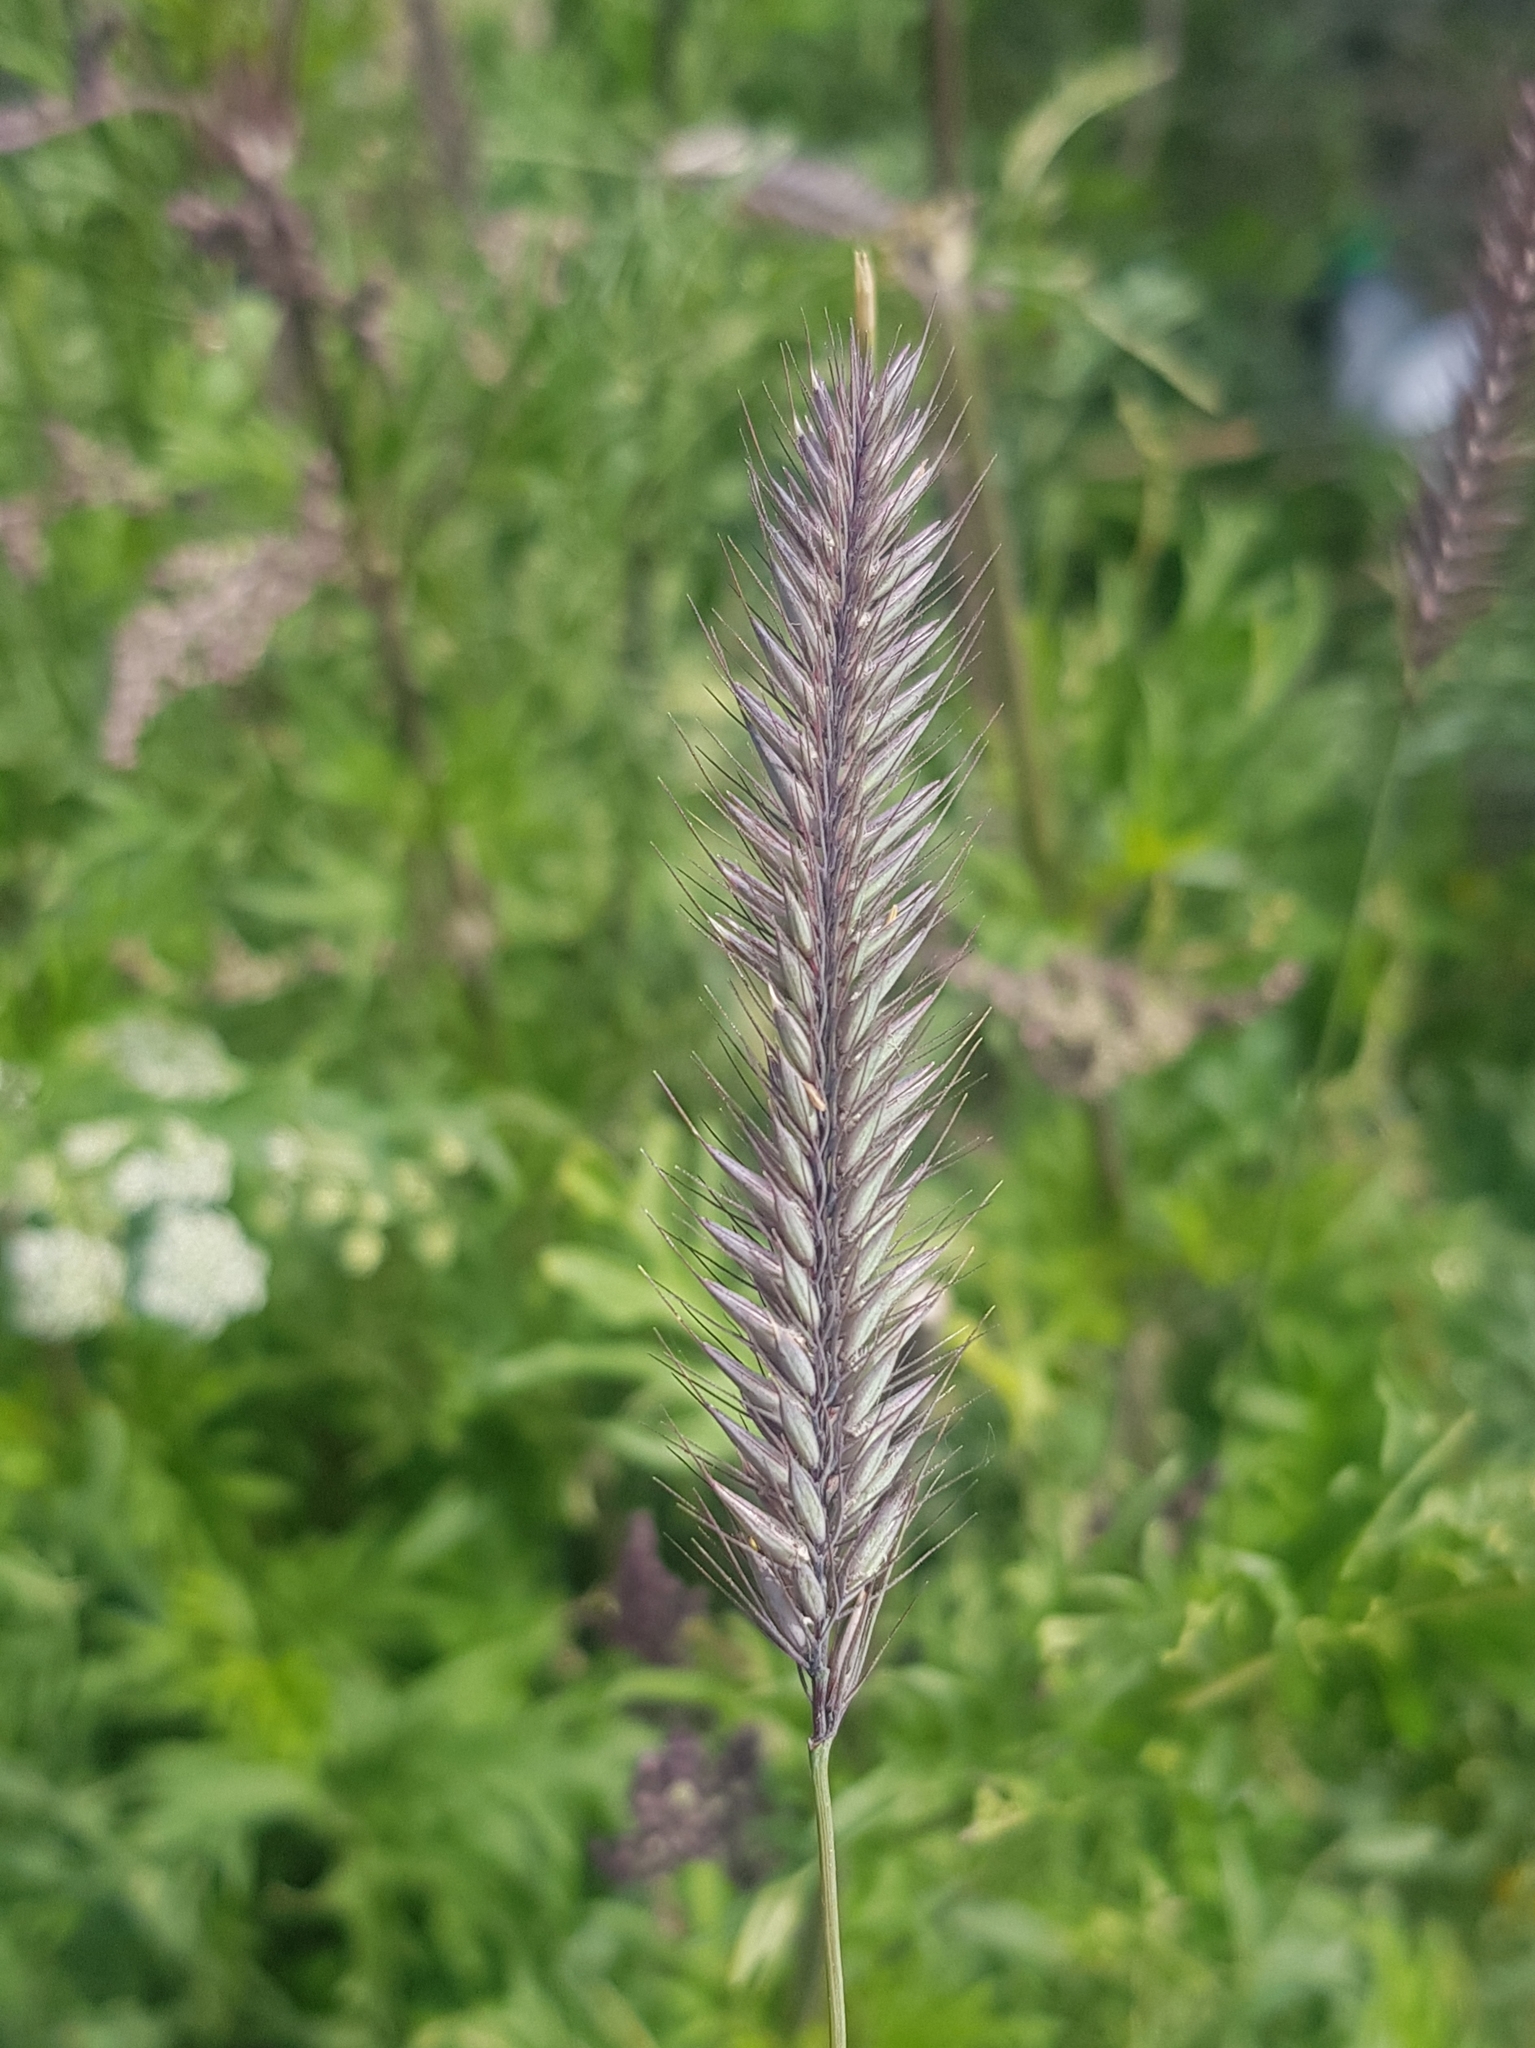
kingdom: Plantae
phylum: Tracheophyta
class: Liliopsida
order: Poales
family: Poaceae
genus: Hordeum
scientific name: Hordeum brachyantherum
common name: Meadow barley
